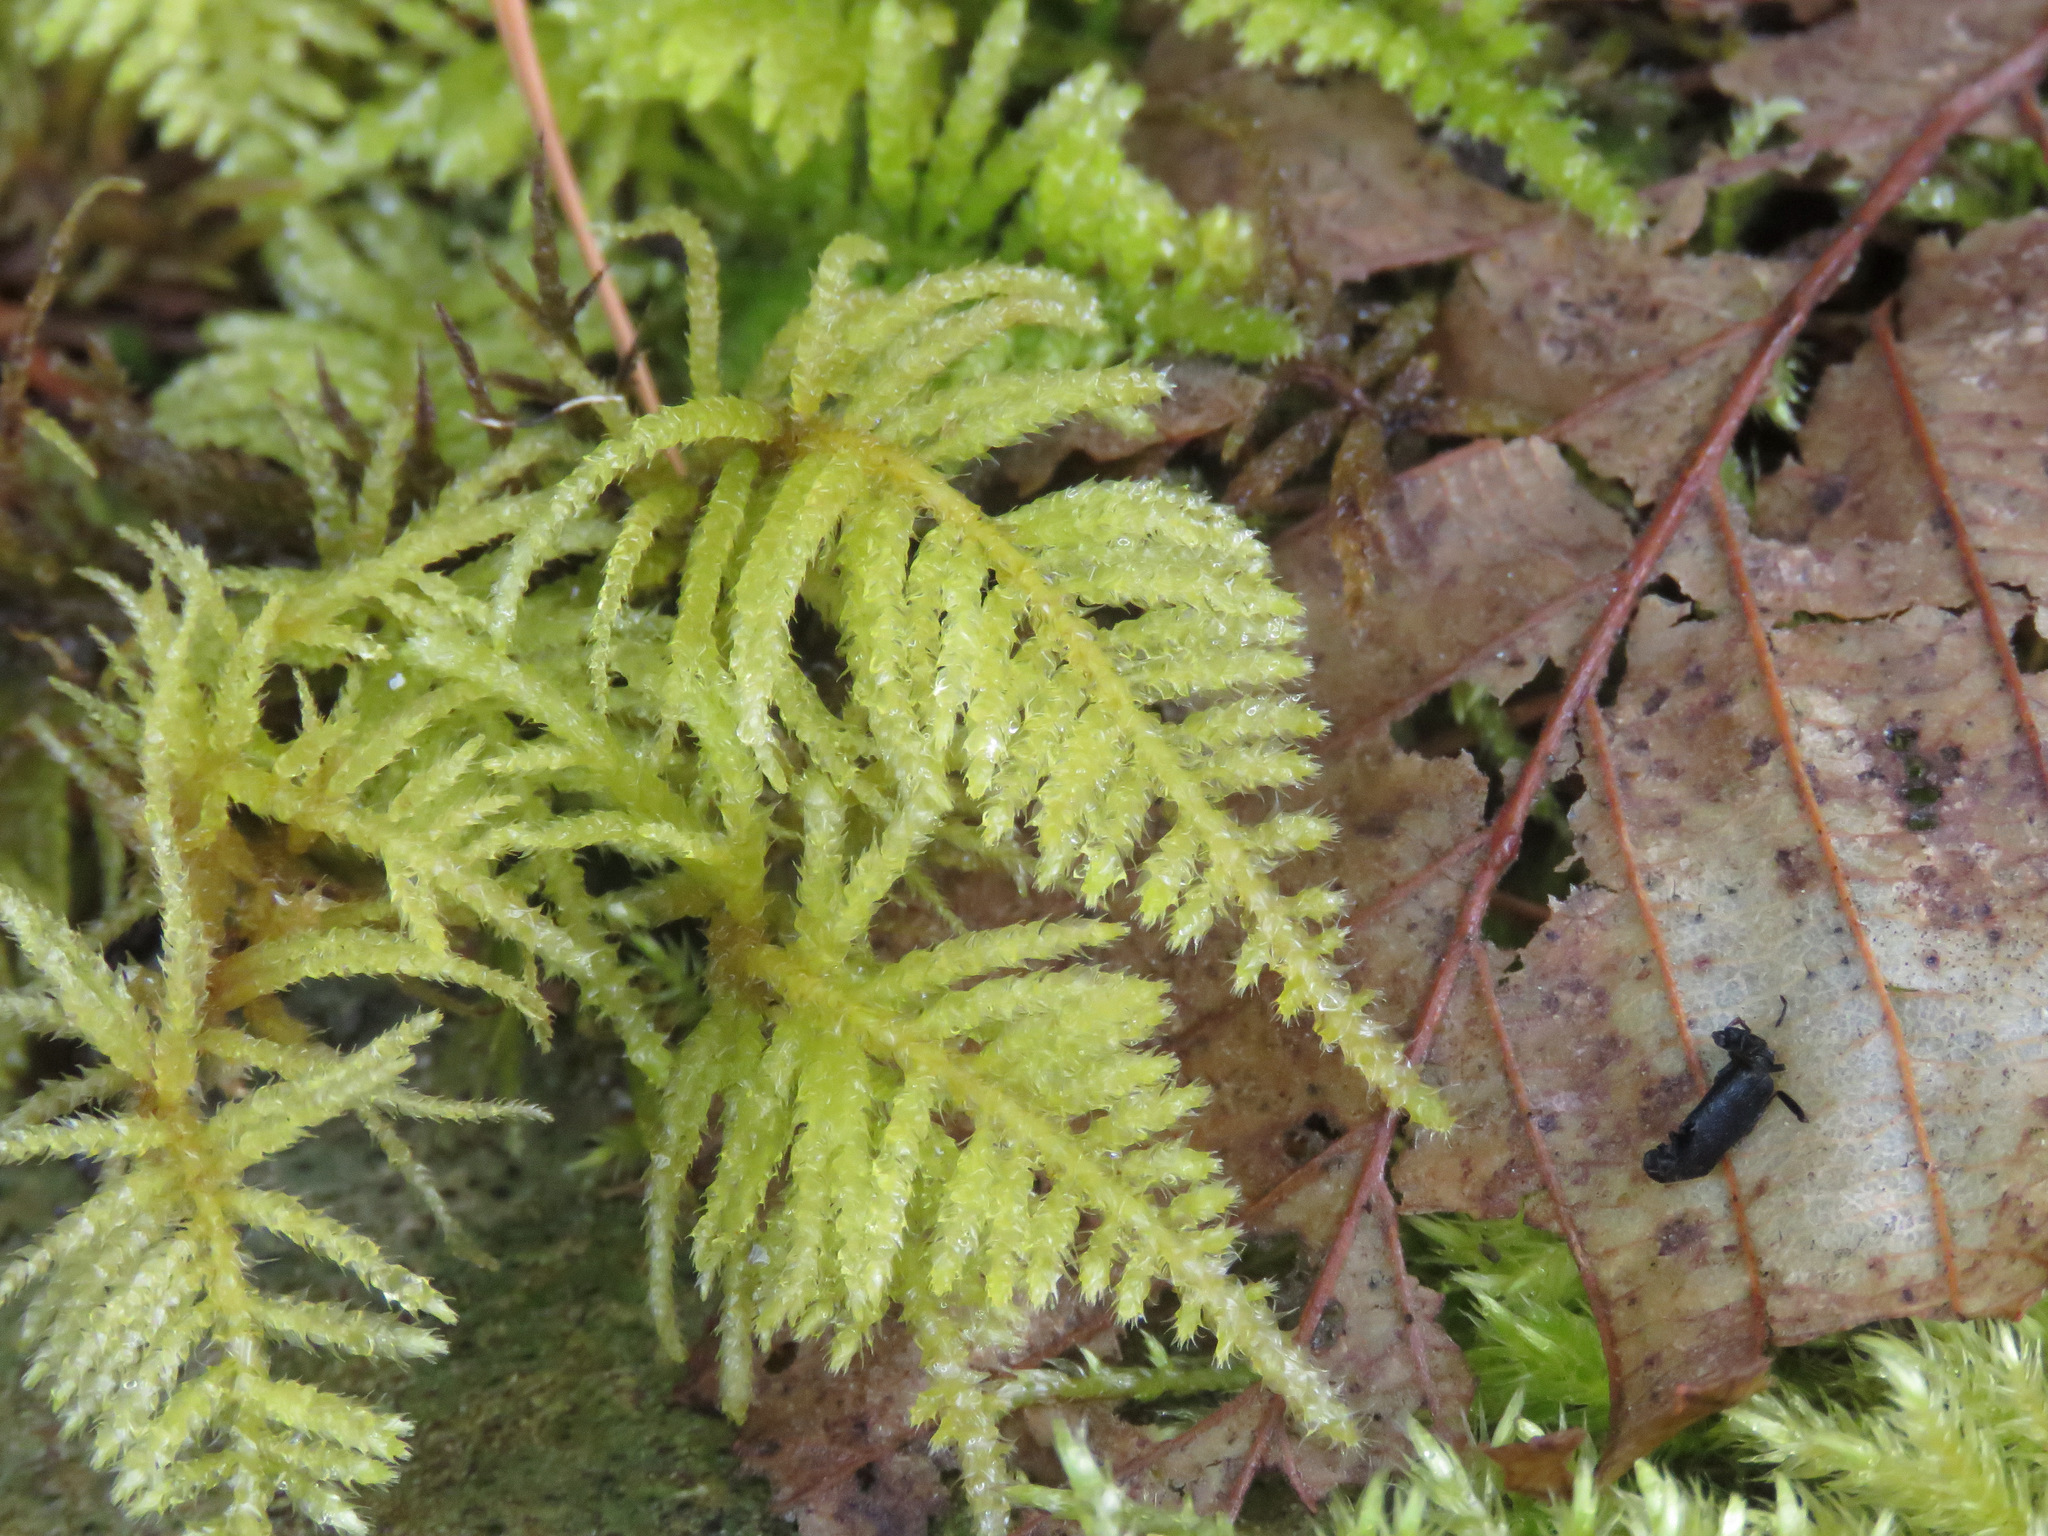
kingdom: Plantae
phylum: Bryophyta
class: Bryopsida
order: Hypnales
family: Brachytheciaceae
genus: Kindbergia
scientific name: Kindbergia oregana
